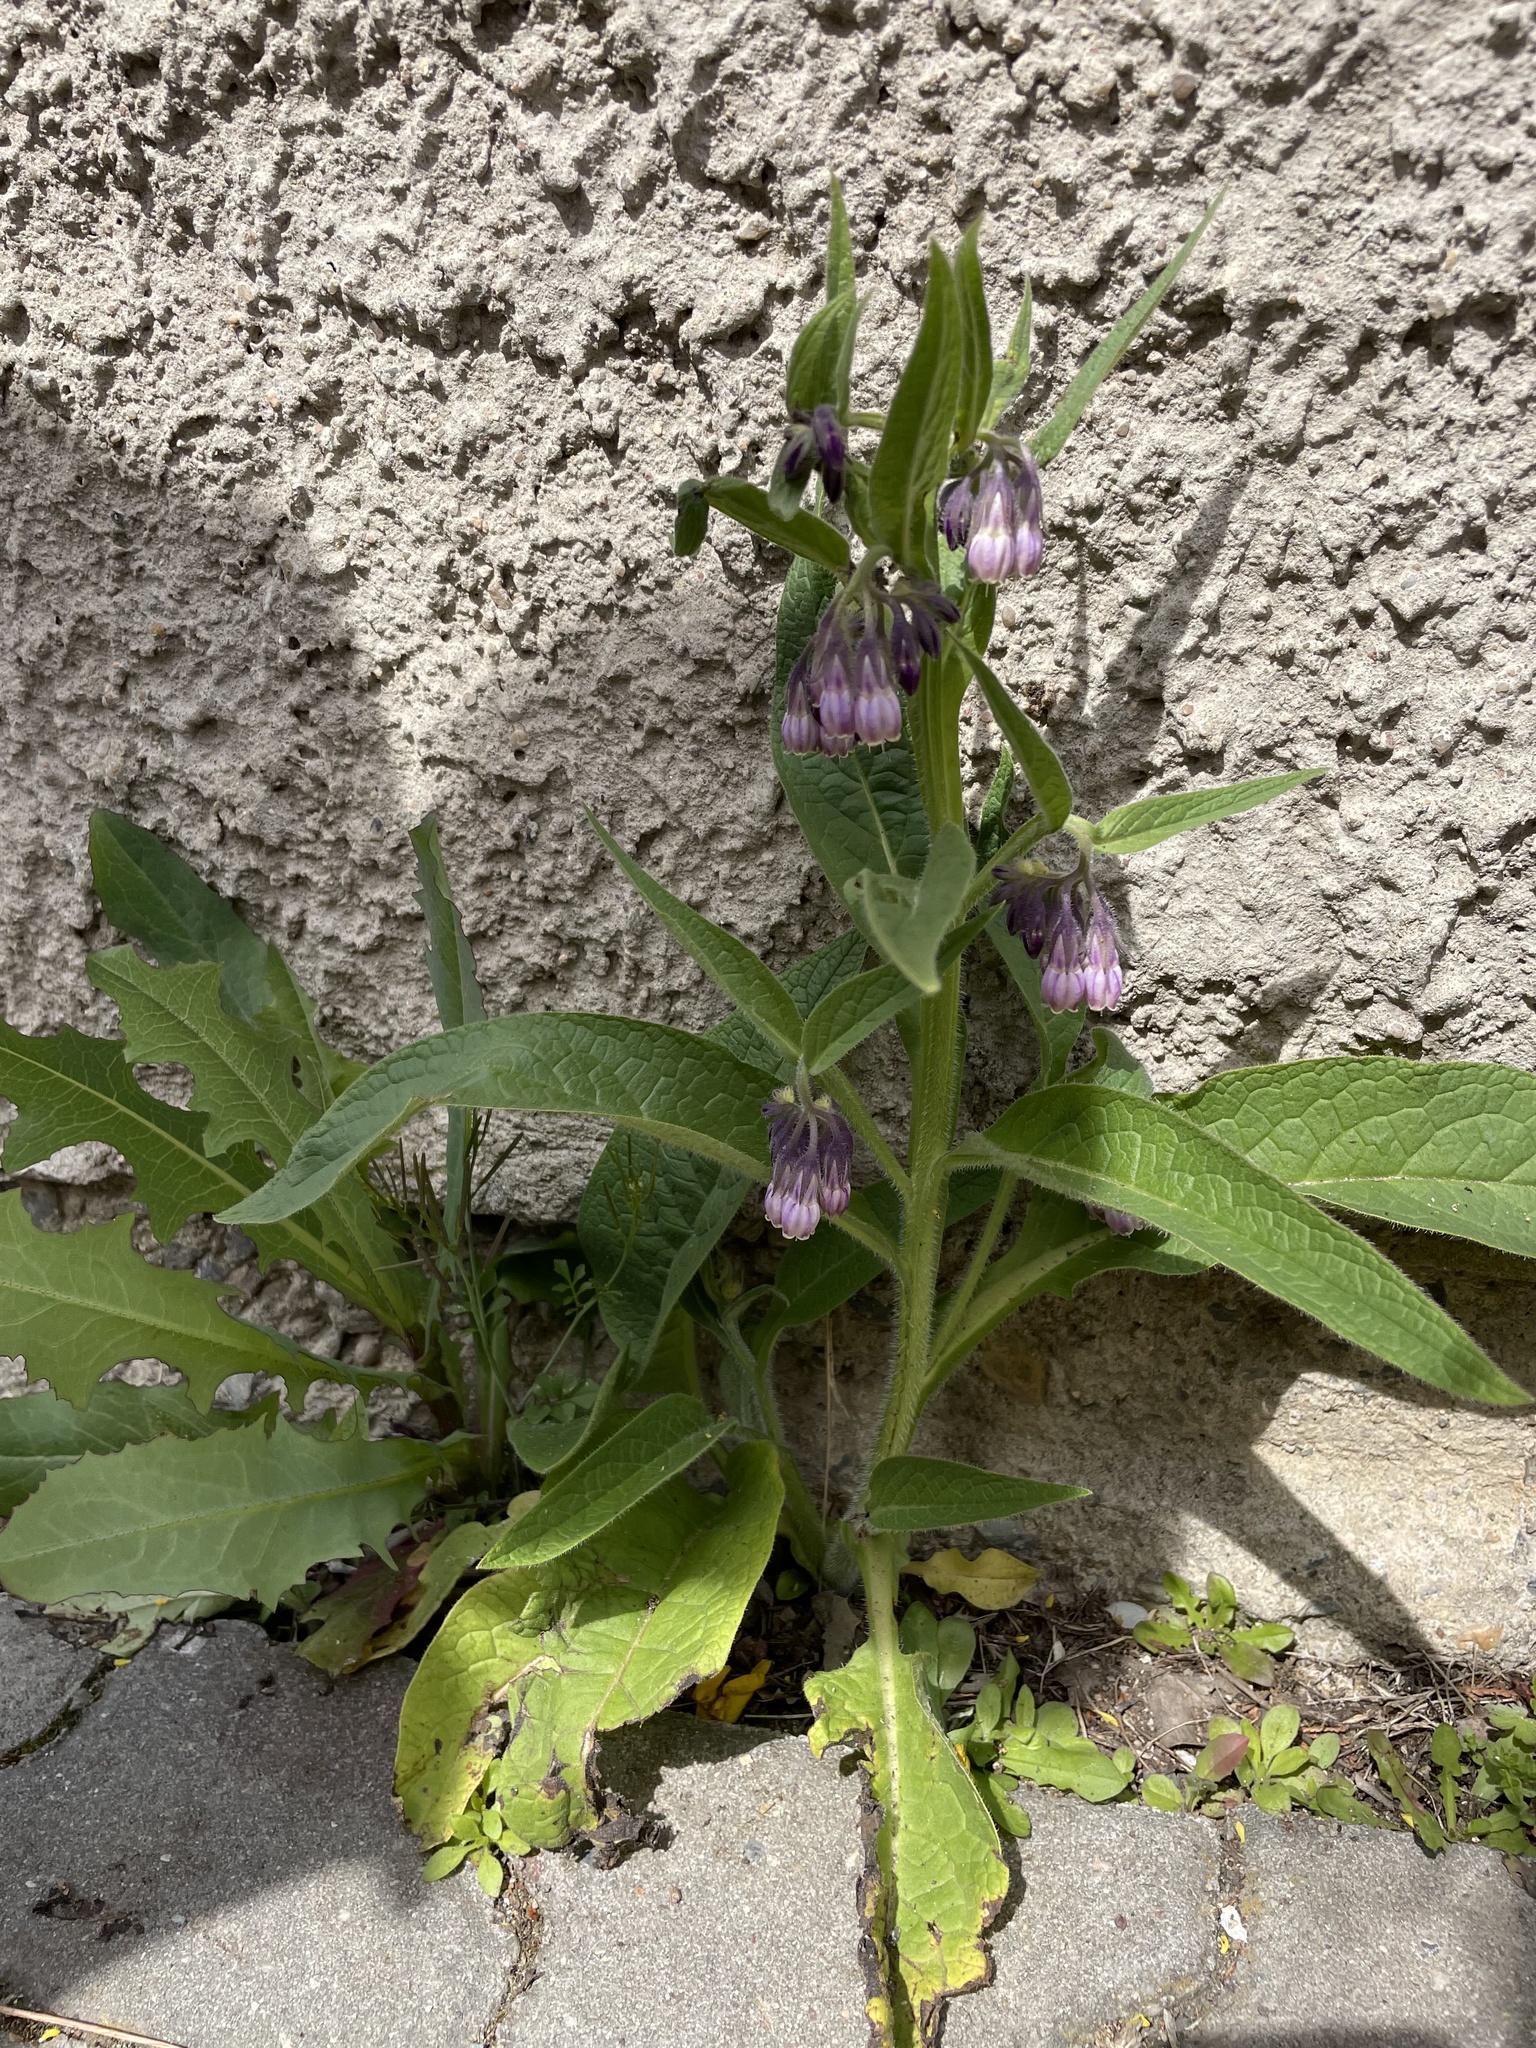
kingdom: Plantae
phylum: Tracheophyta
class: Magnoliopsida
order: Boraginales
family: Boraginaceae
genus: Symphytum
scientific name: Symphytum officinale
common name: Common comfrey
